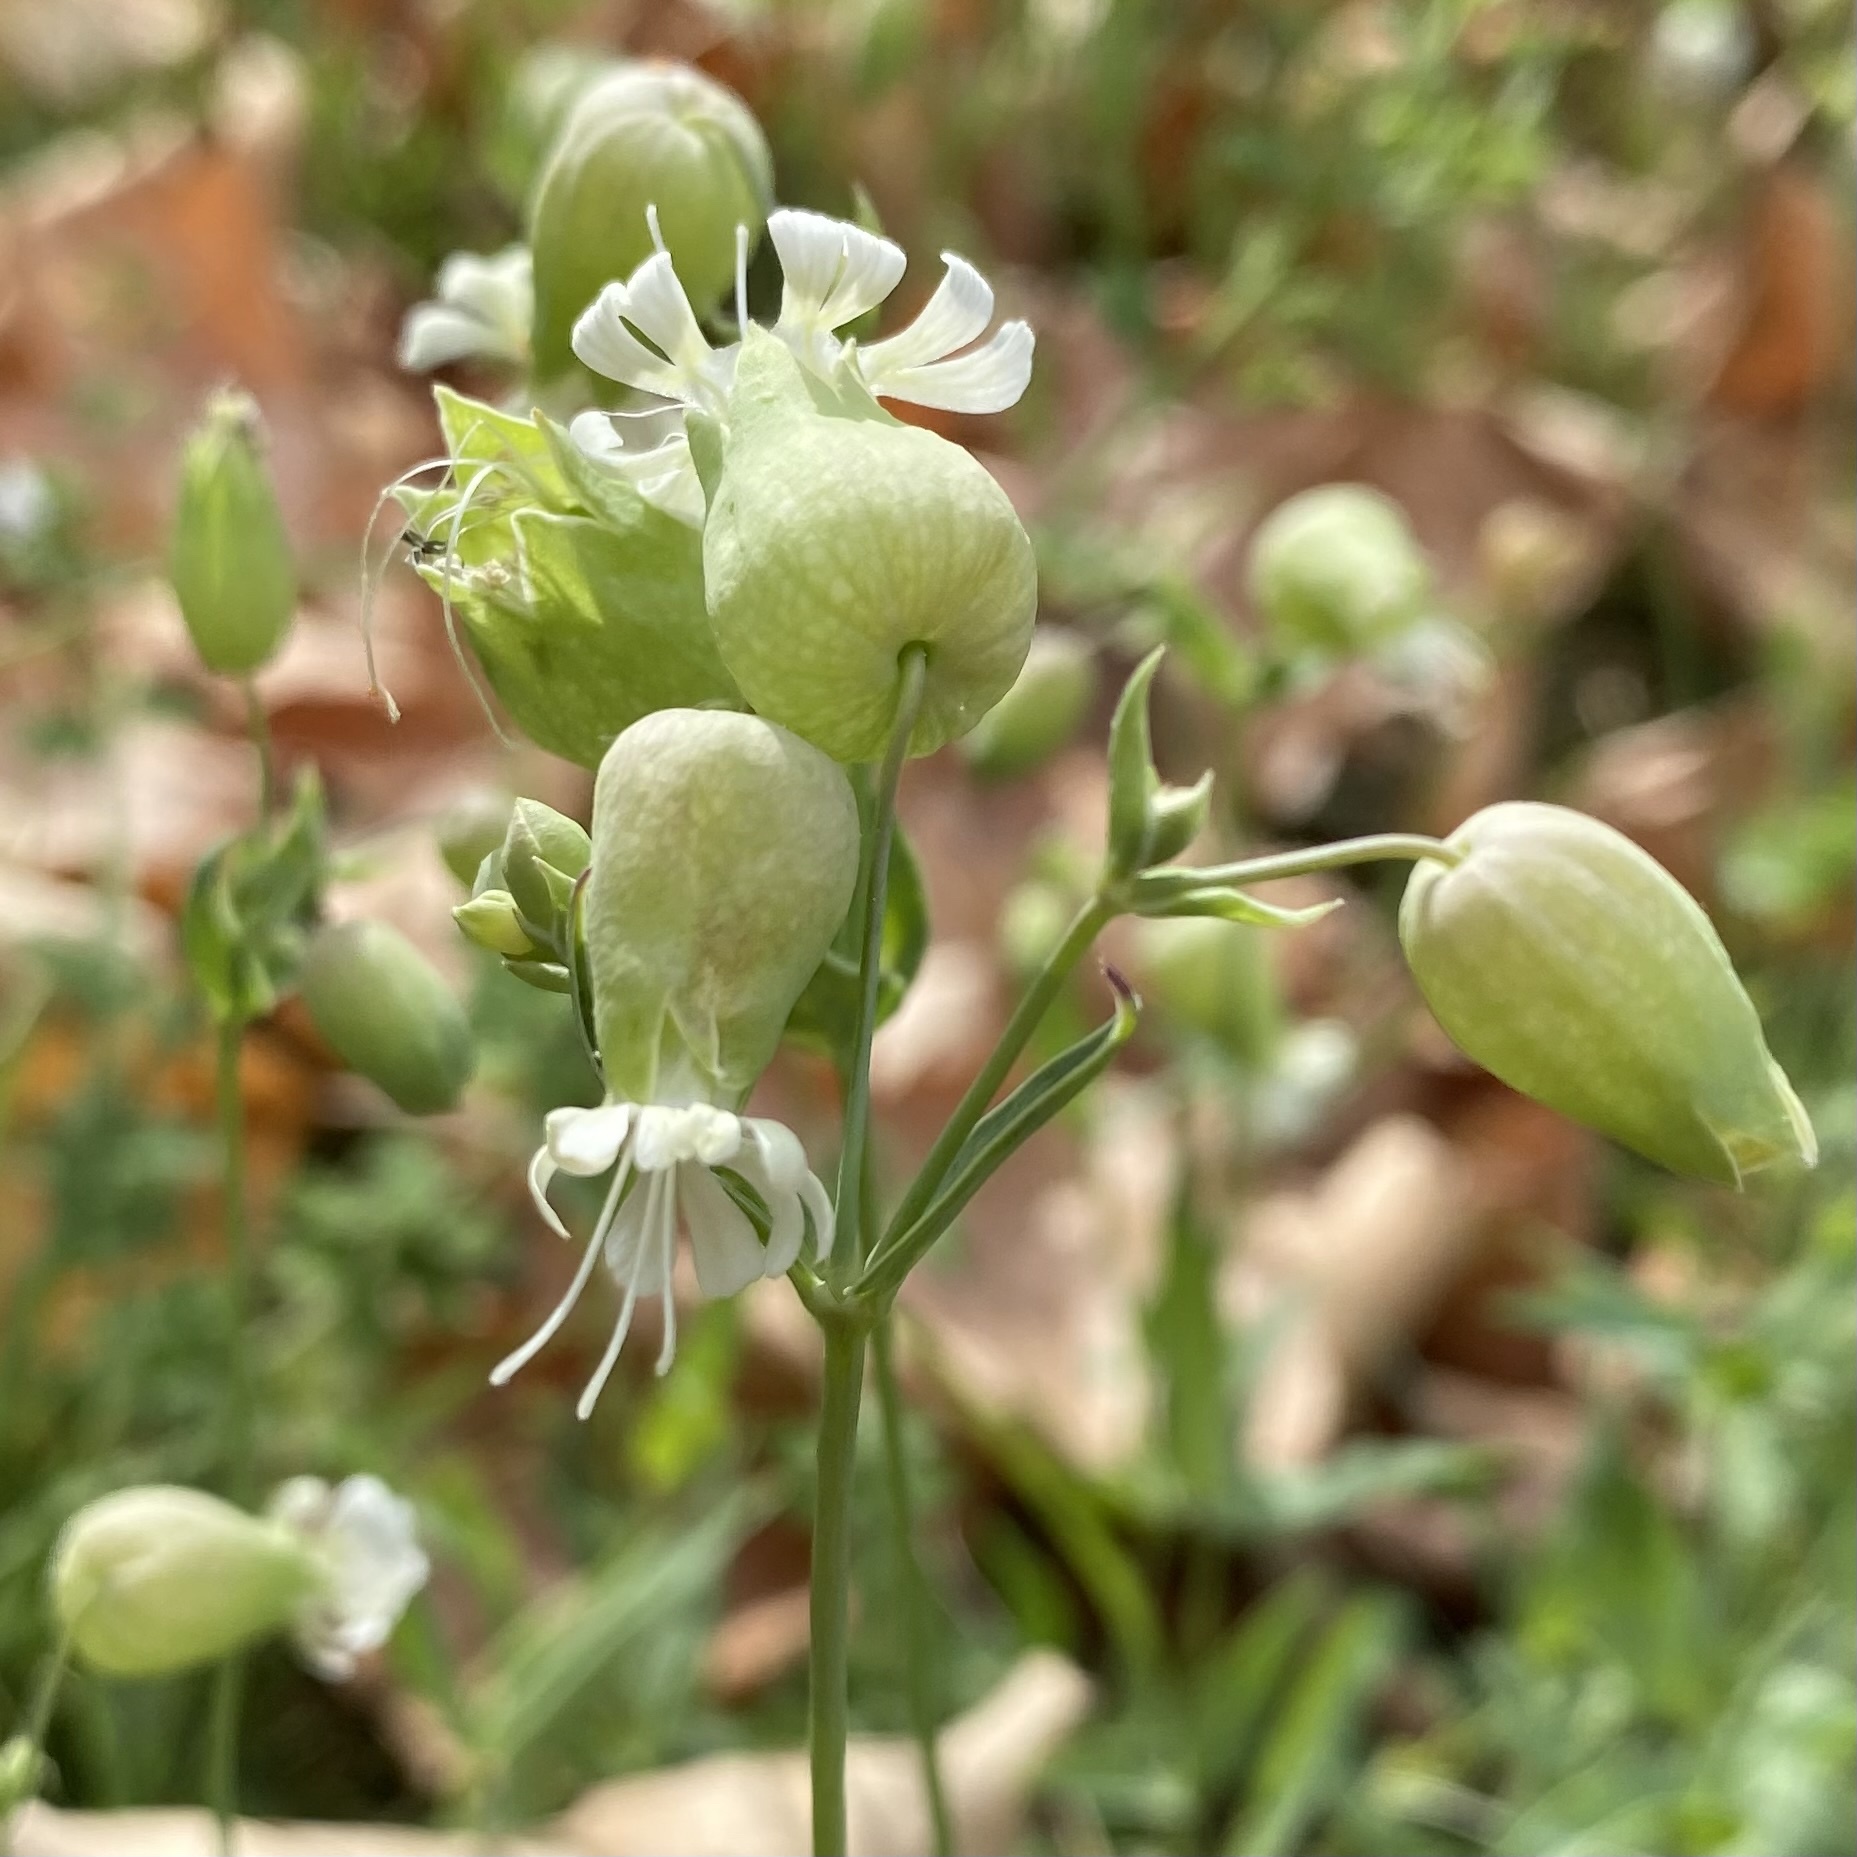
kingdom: Plantae
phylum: Tracheophyta
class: Magnoliopsida
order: Caryophyllales
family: Caryophyllaceae
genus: Silene
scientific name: Silene vulgaris
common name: Bladder campion
